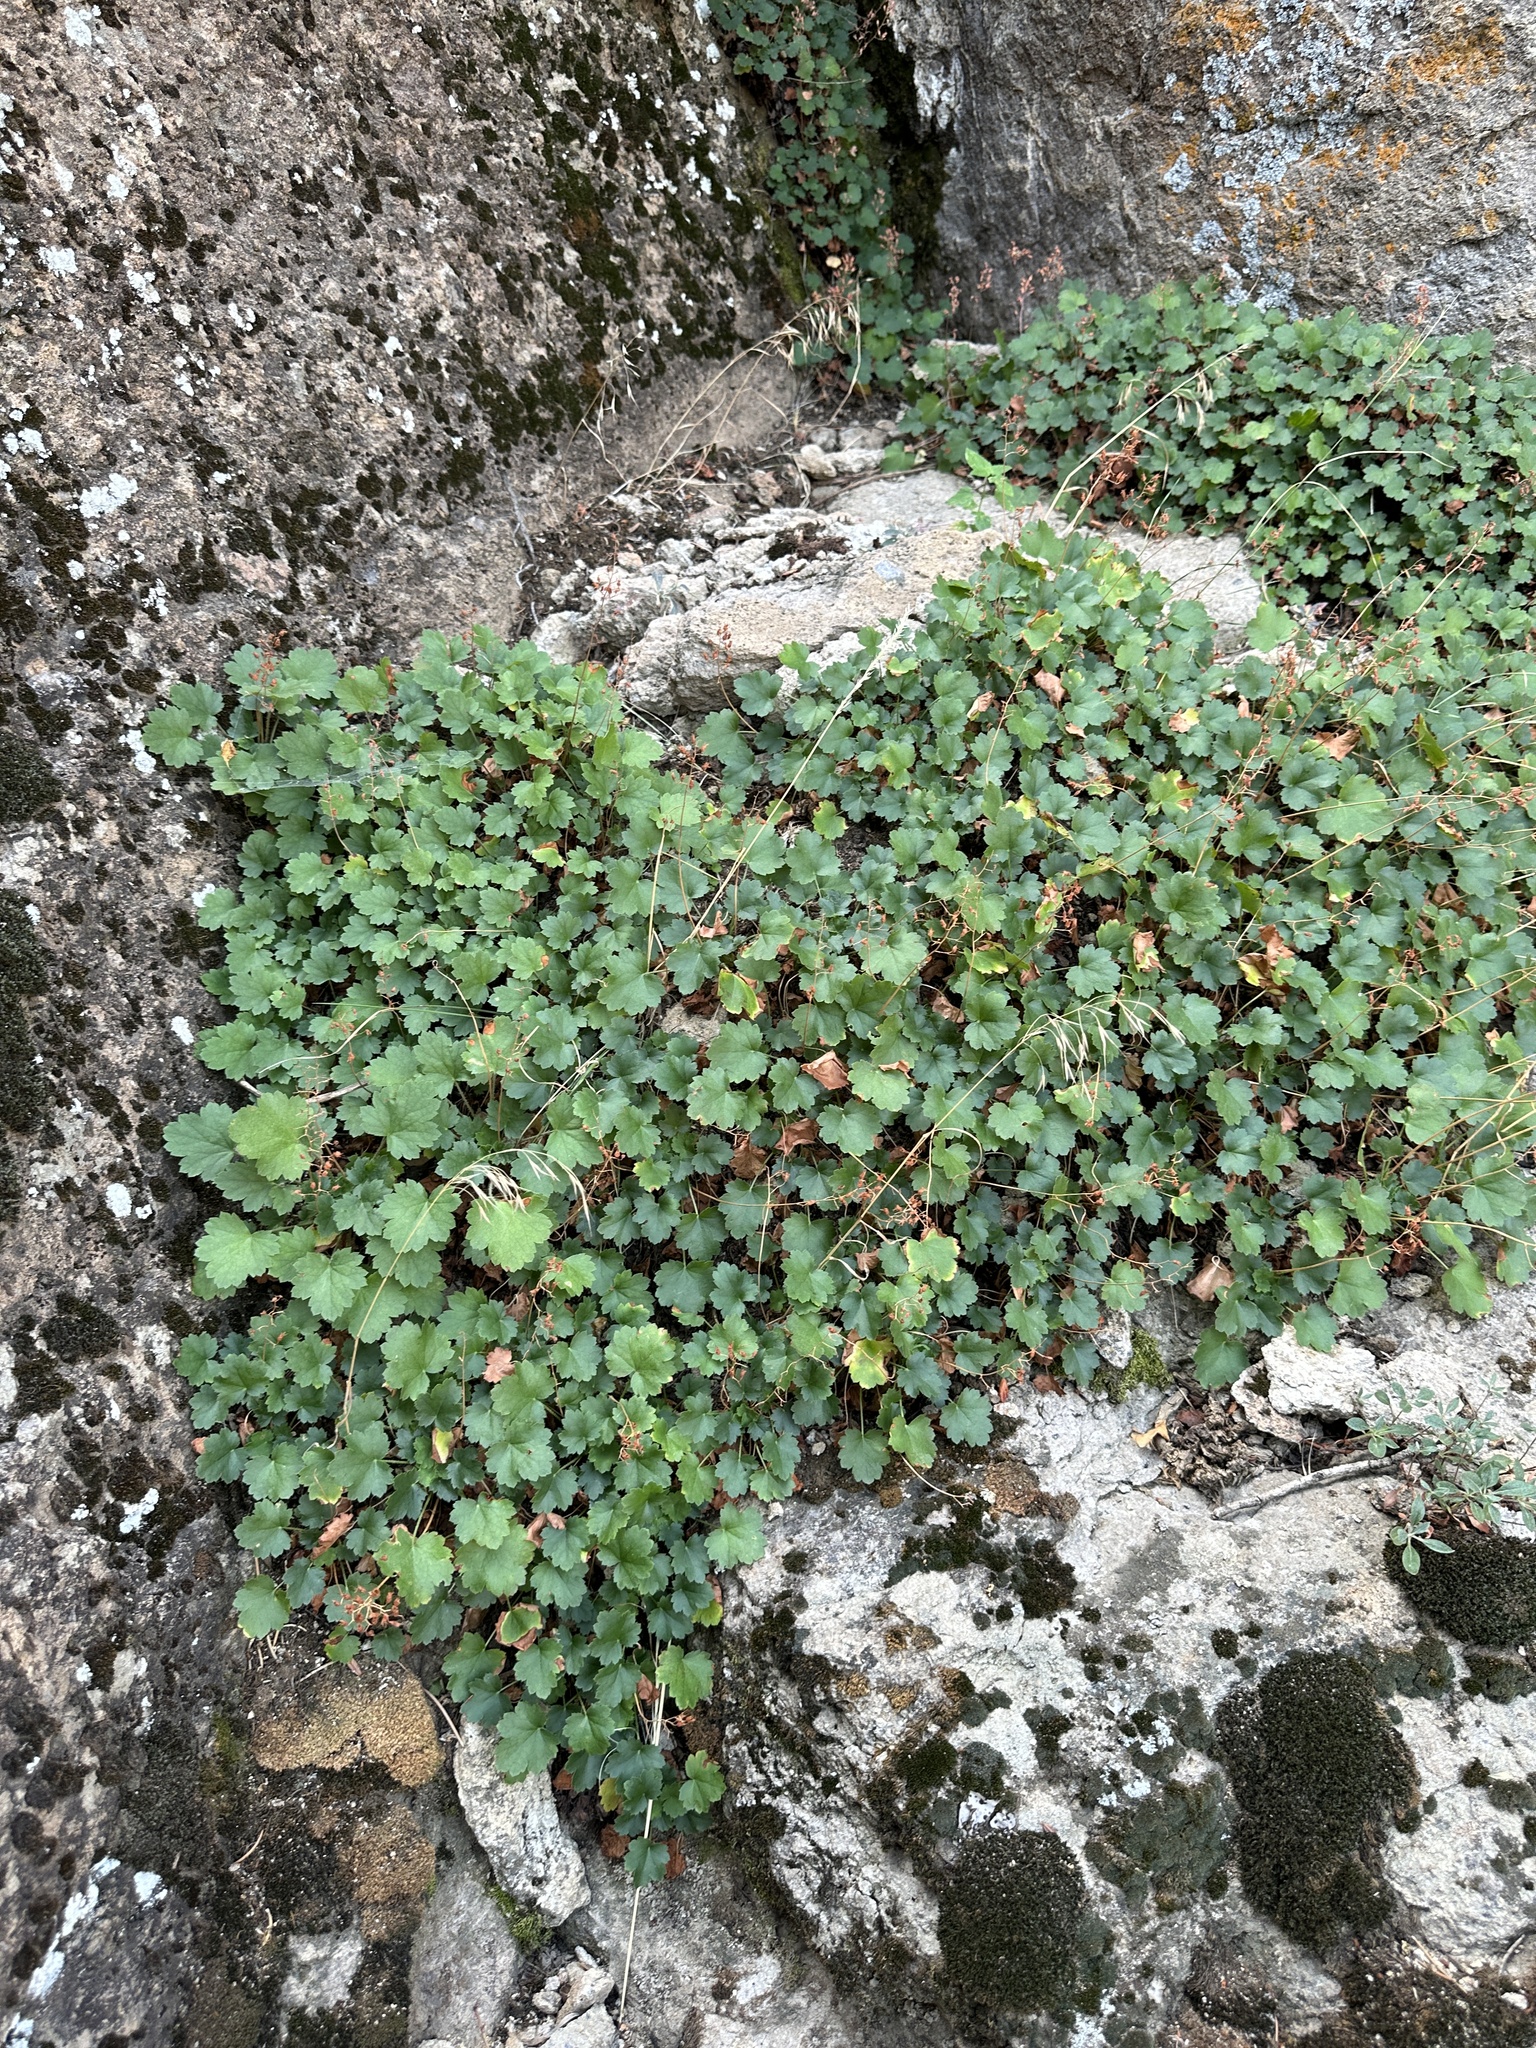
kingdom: Plantae
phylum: Tracheophyta
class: Magnoliopsida
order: Saxifragales
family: Saxifragaceae
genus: Heuchera
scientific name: Heuchera rubescens
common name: Jack-o'the-rocks
